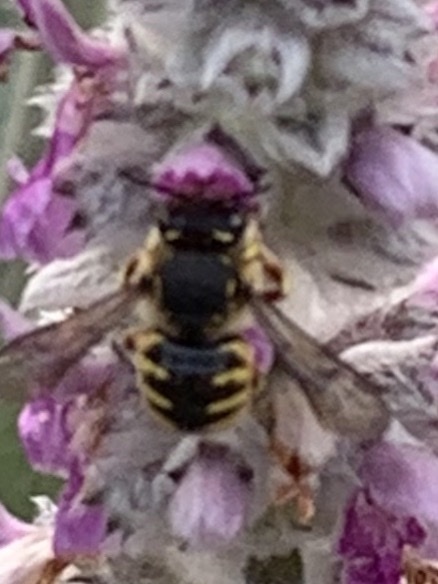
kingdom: Animalia
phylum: Arthropoda
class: Insecta
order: Hymenoptera
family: Megachilidae
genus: Anthidium
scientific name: Anthidium manicatum
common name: Wool carder bee
